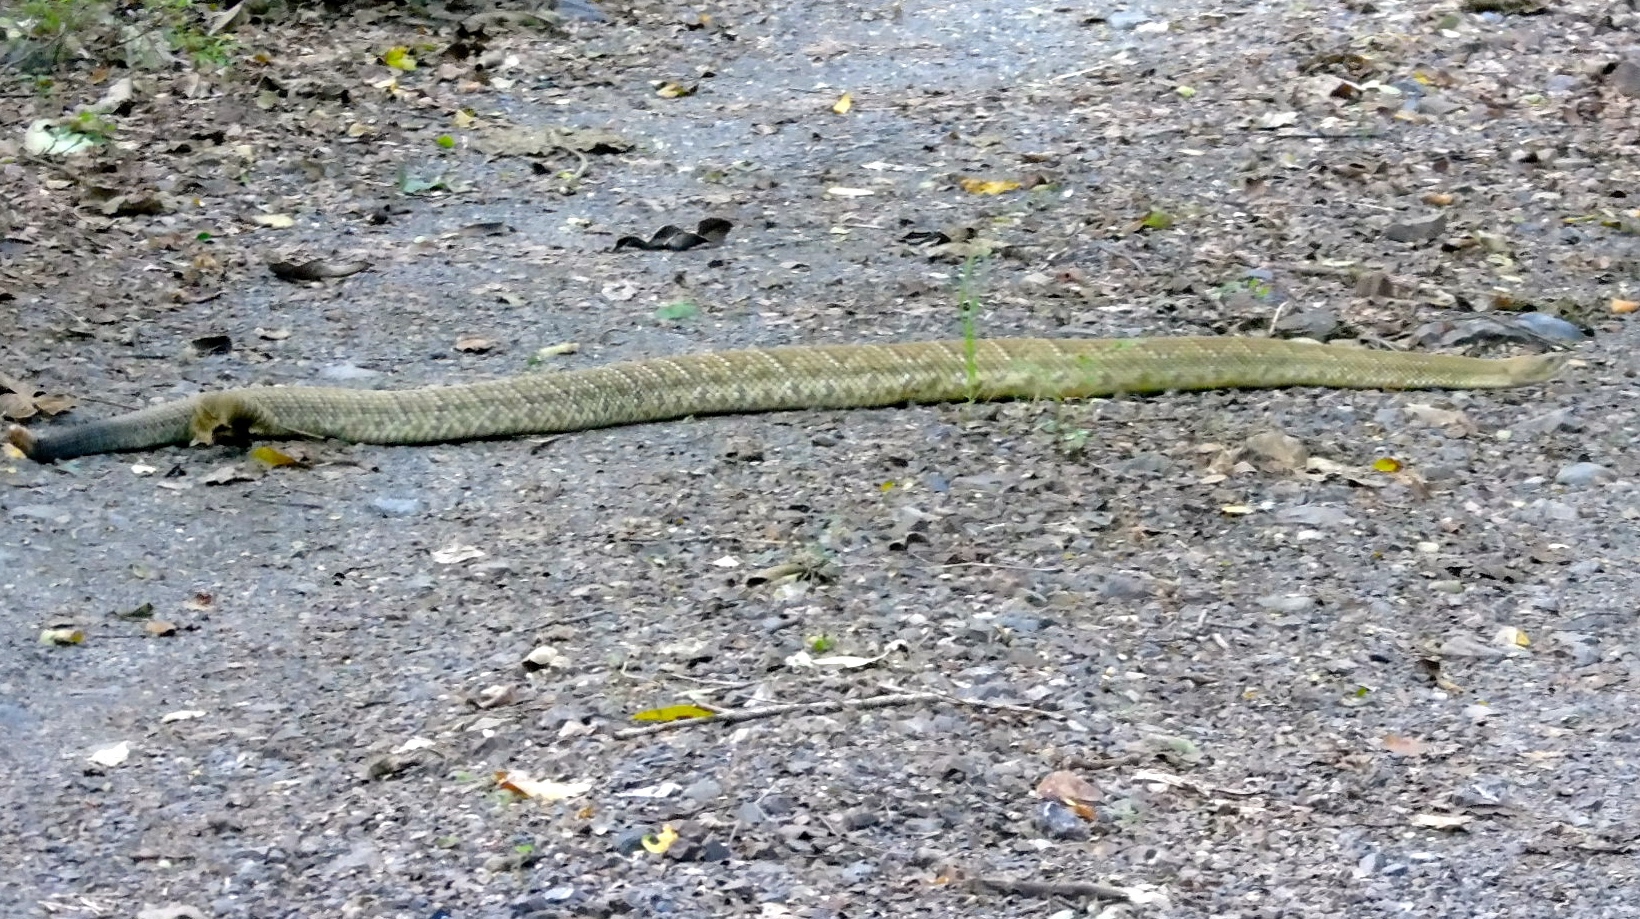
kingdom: Animalia
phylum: Chordata
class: Squamata
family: Viperidae
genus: Crotalus
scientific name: Crotalus basiliscus
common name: Basilisk rattlesnake
